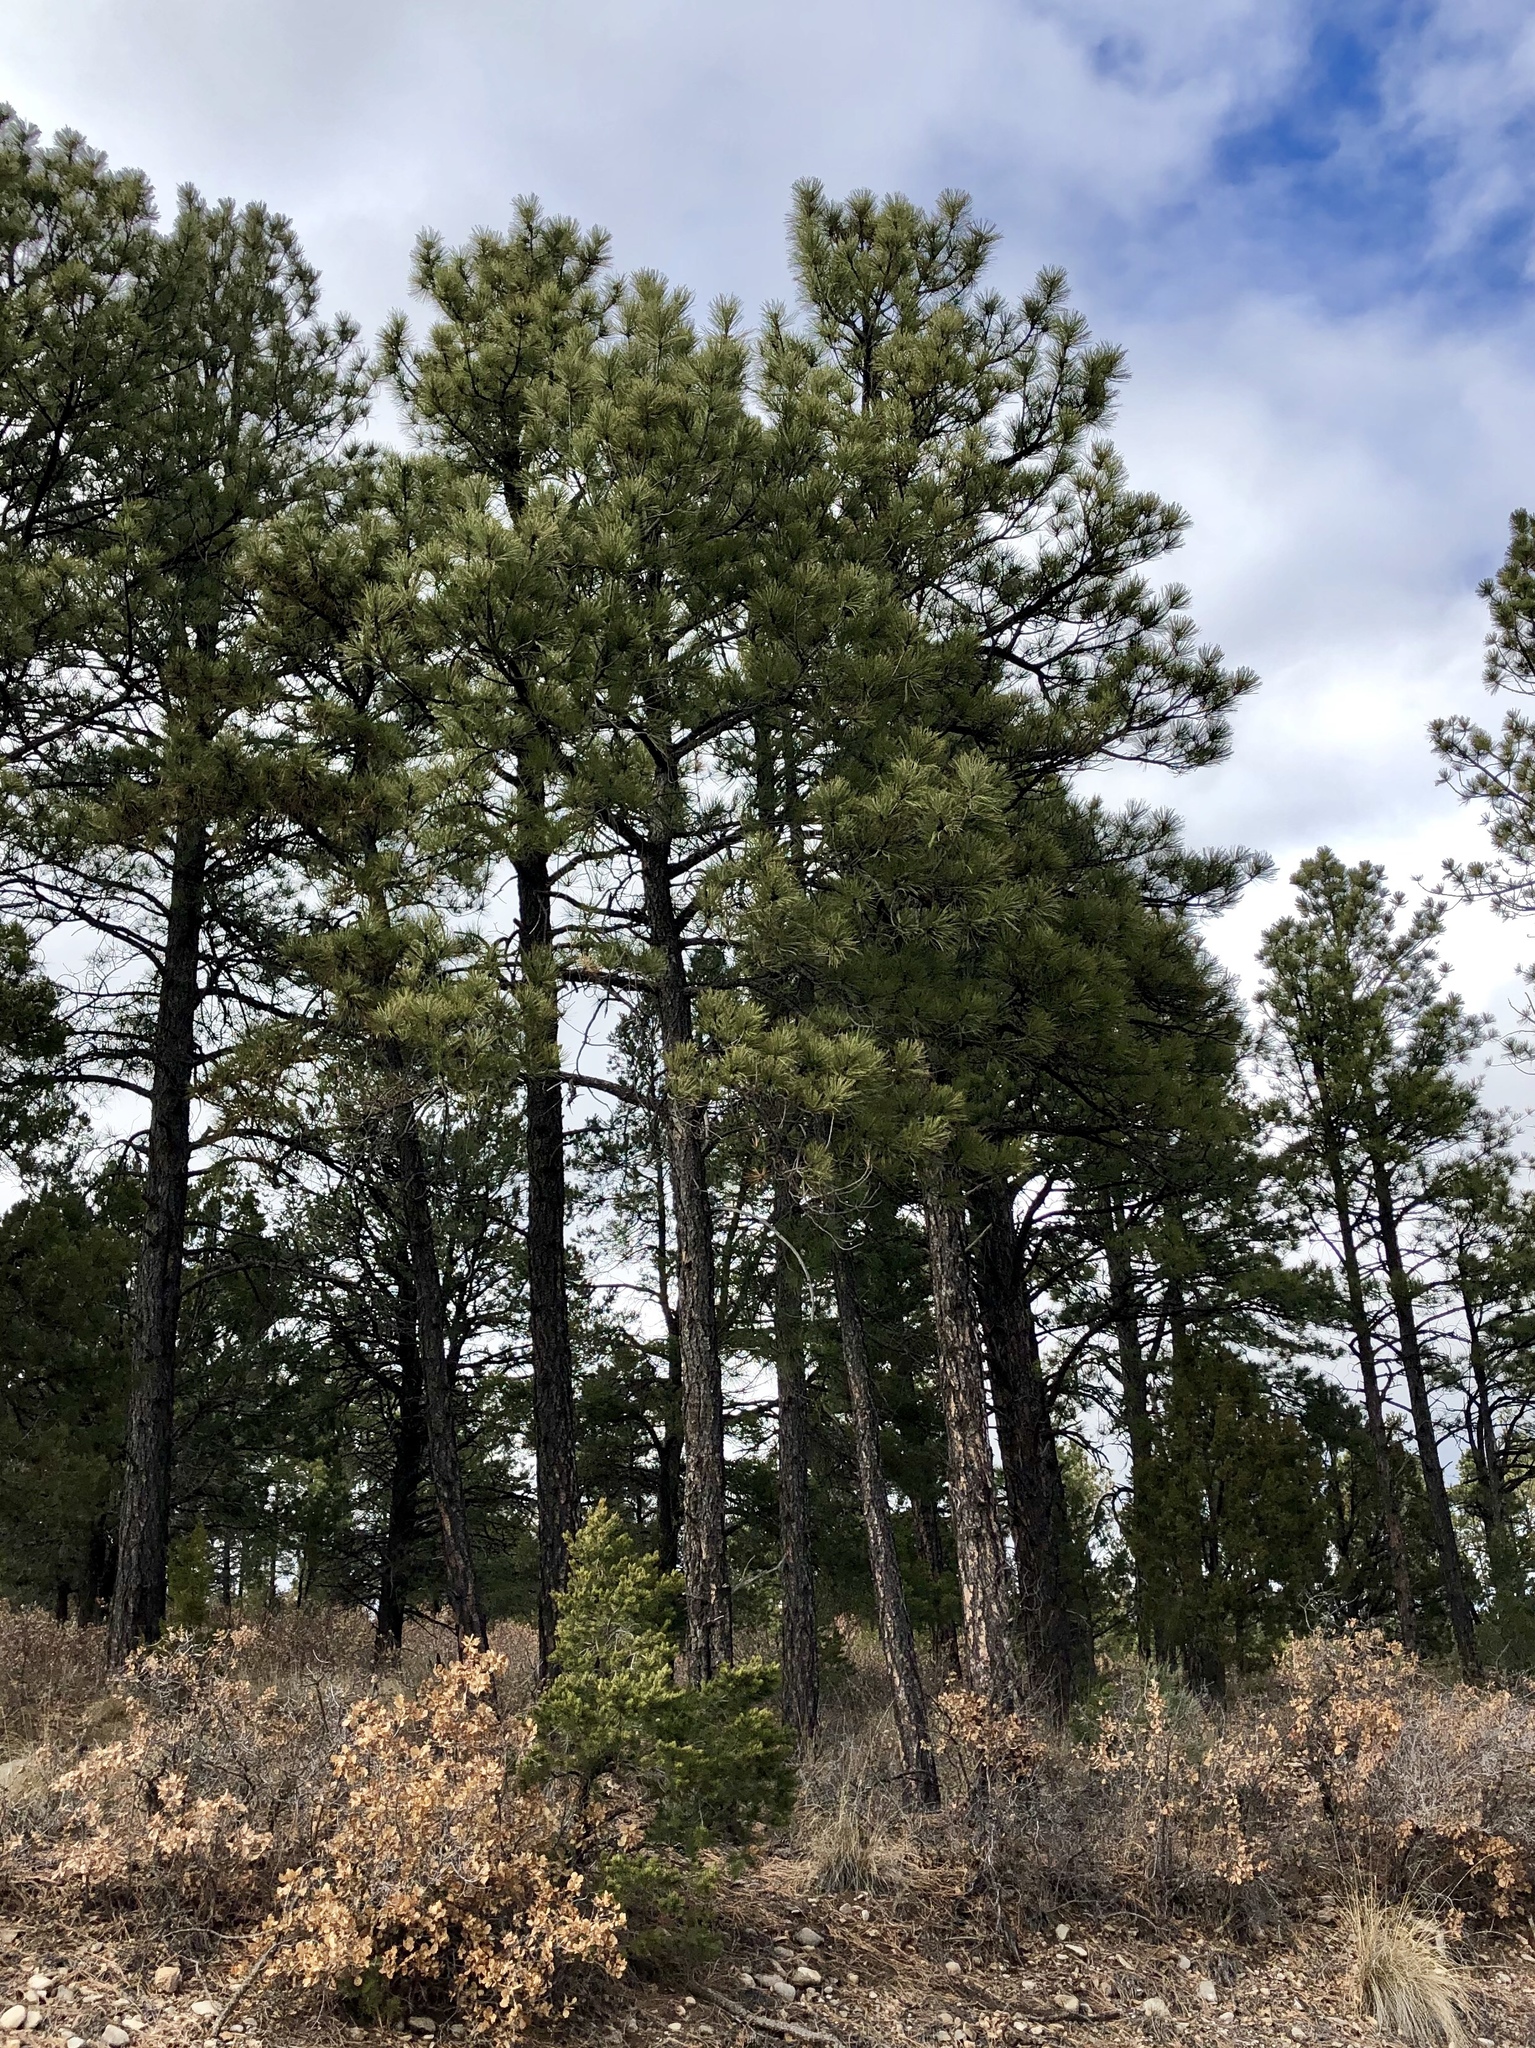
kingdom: Plantae
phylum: Tracheophyta
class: Pinopsida
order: Pinales
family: Pinaceae
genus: Pinus
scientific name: Pinus ponderosa
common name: Western yellow-pine
